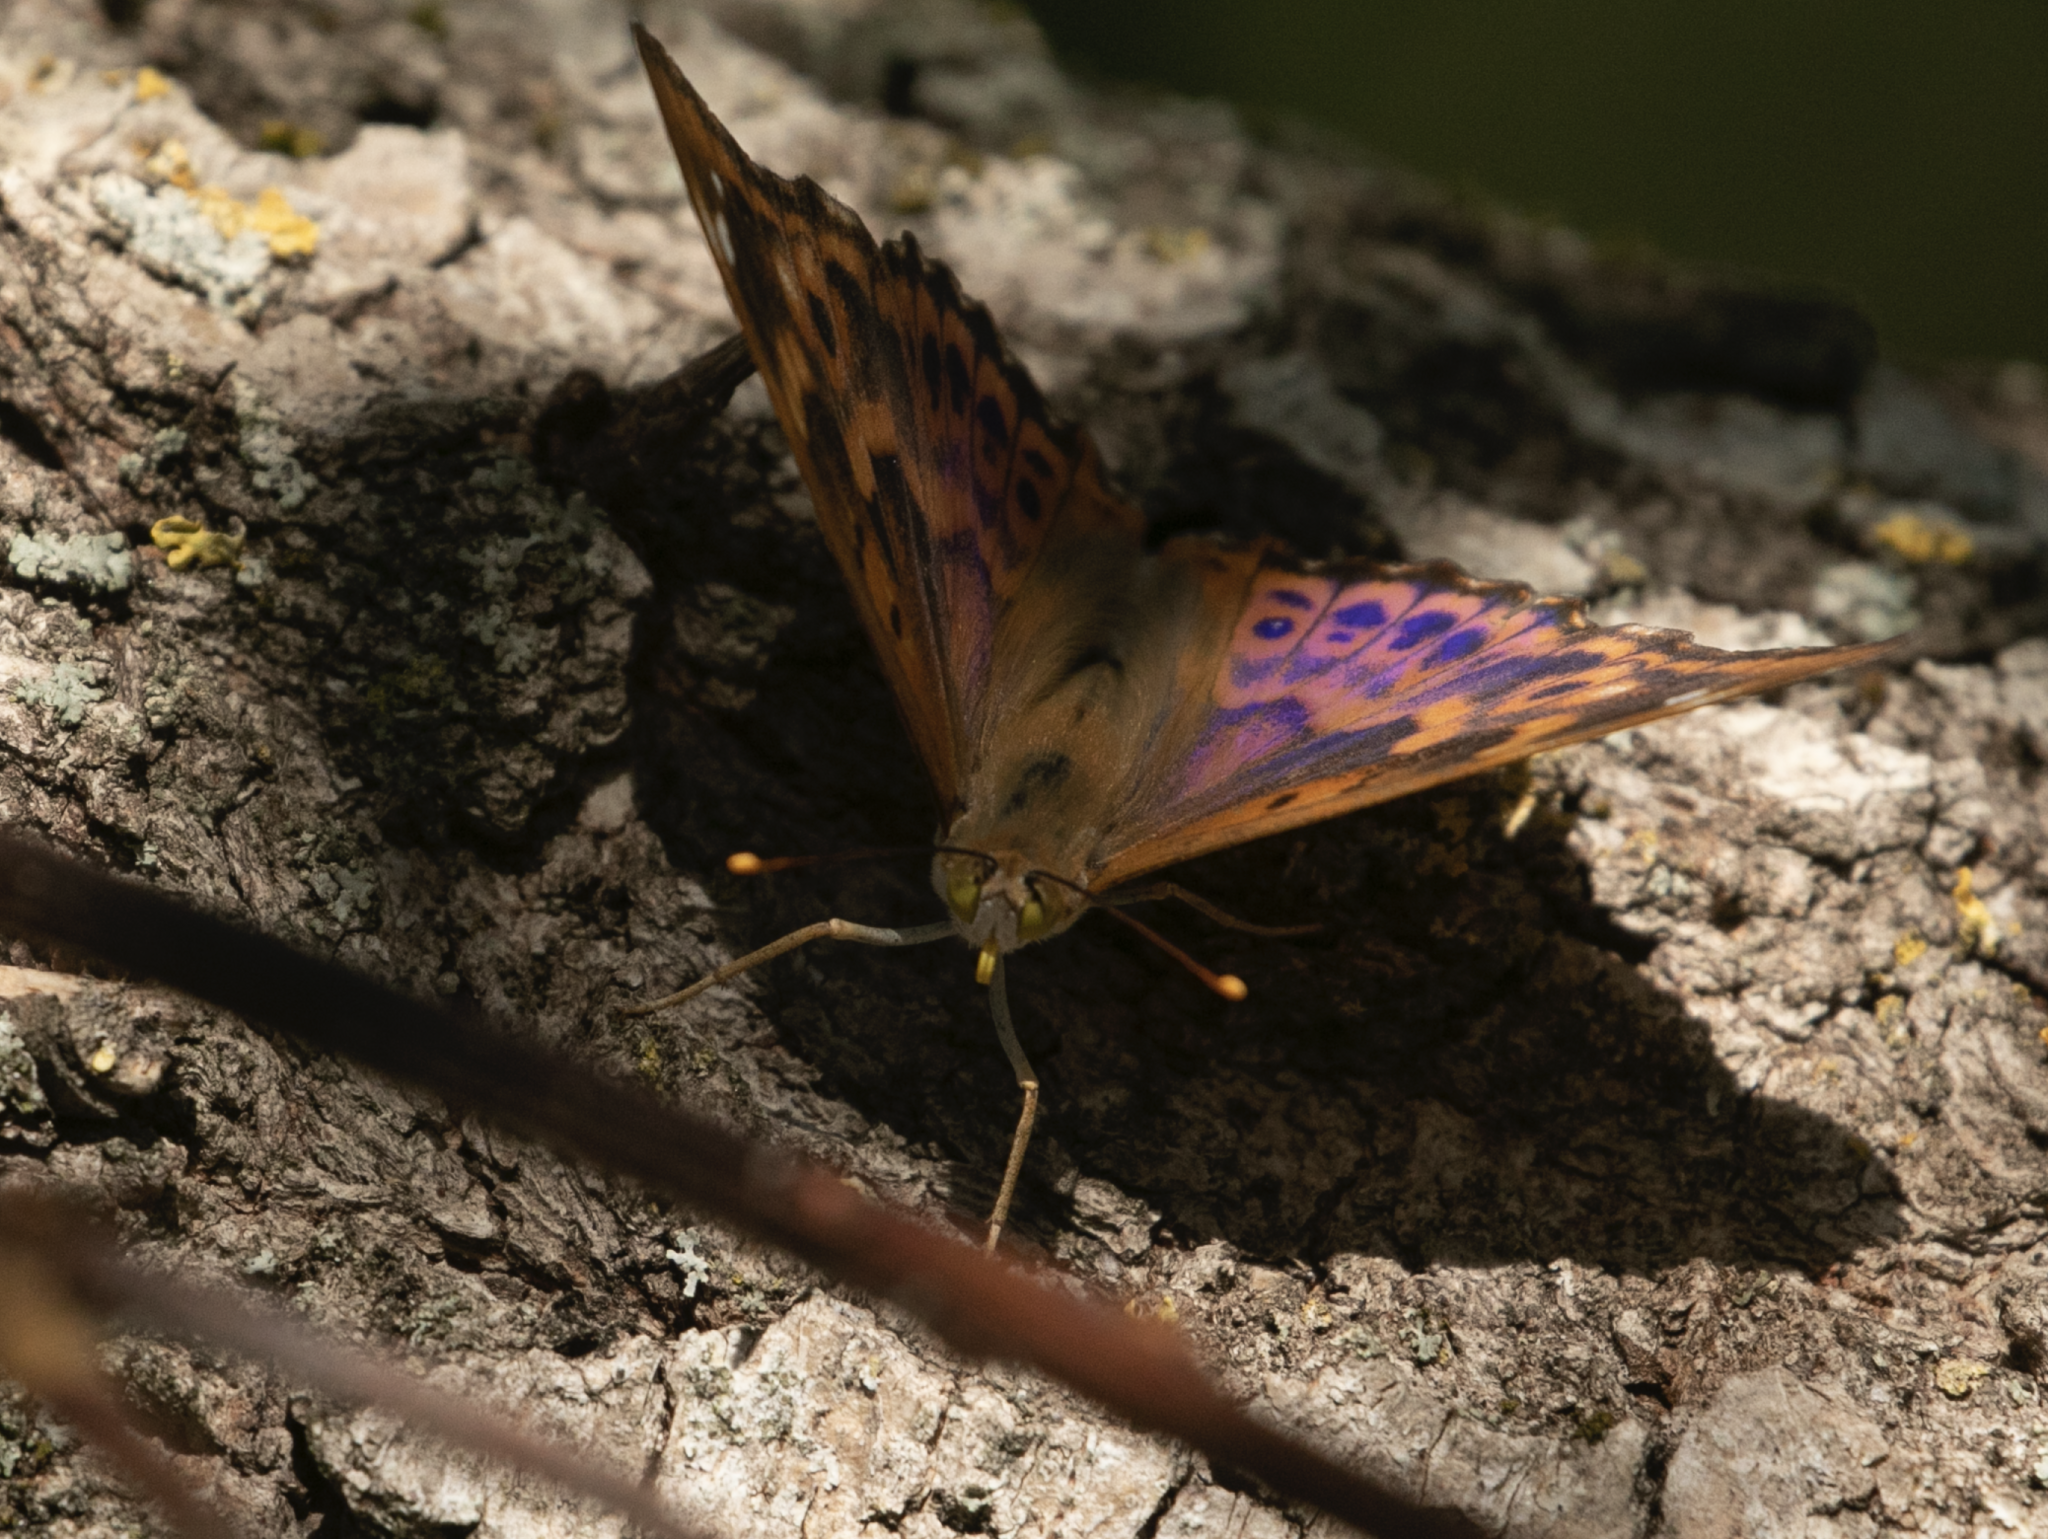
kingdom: Animalia
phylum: Arthropoda
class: Insecta
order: Lepidoptera
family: Nymphalidae
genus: Apatura
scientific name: Apatura ilia
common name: Lesser purple emperor
